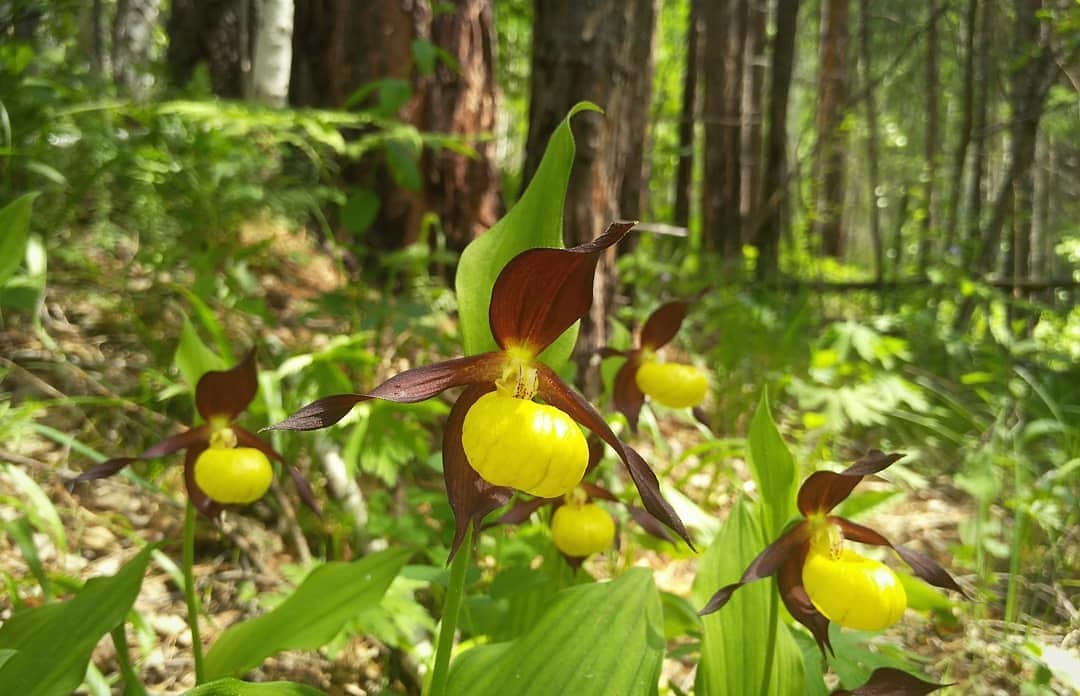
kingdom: Plantae
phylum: Tracheophyta
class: Liliopsida
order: Asparagales
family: Orchidaceae
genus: Cypripedium
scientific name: Cypripedium calceolus
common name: Lady's-slipper
